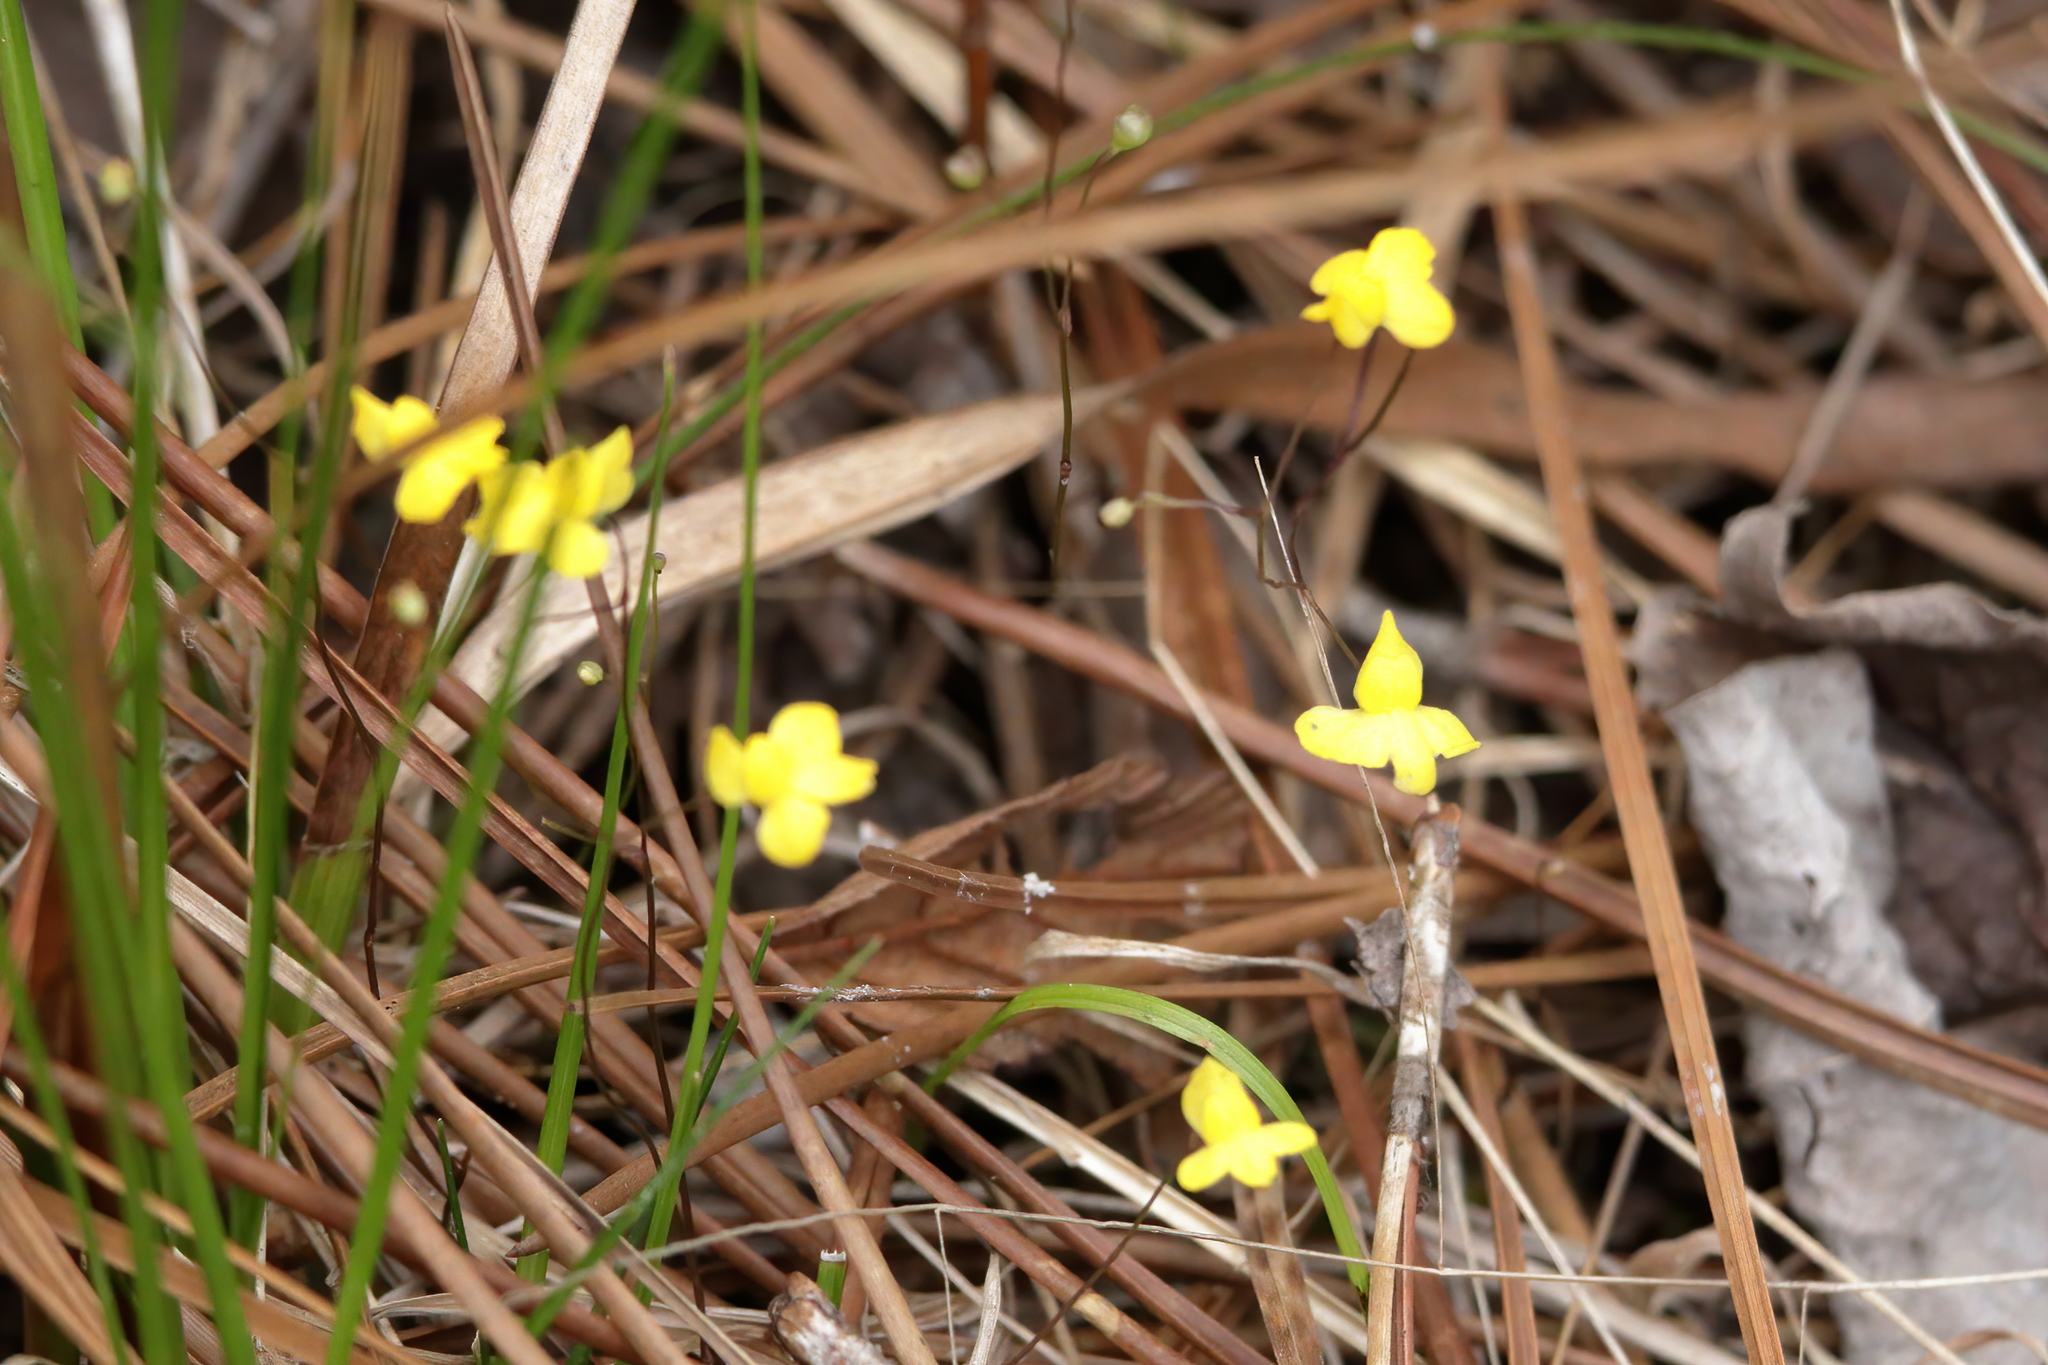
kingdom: Plantae
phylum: Tracheophyta
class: Magnoliopsida
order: Lamiales
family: Lentibulariaceae
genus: Utricularia
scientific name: Utricularia subulata
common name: Tiny bladderwort
